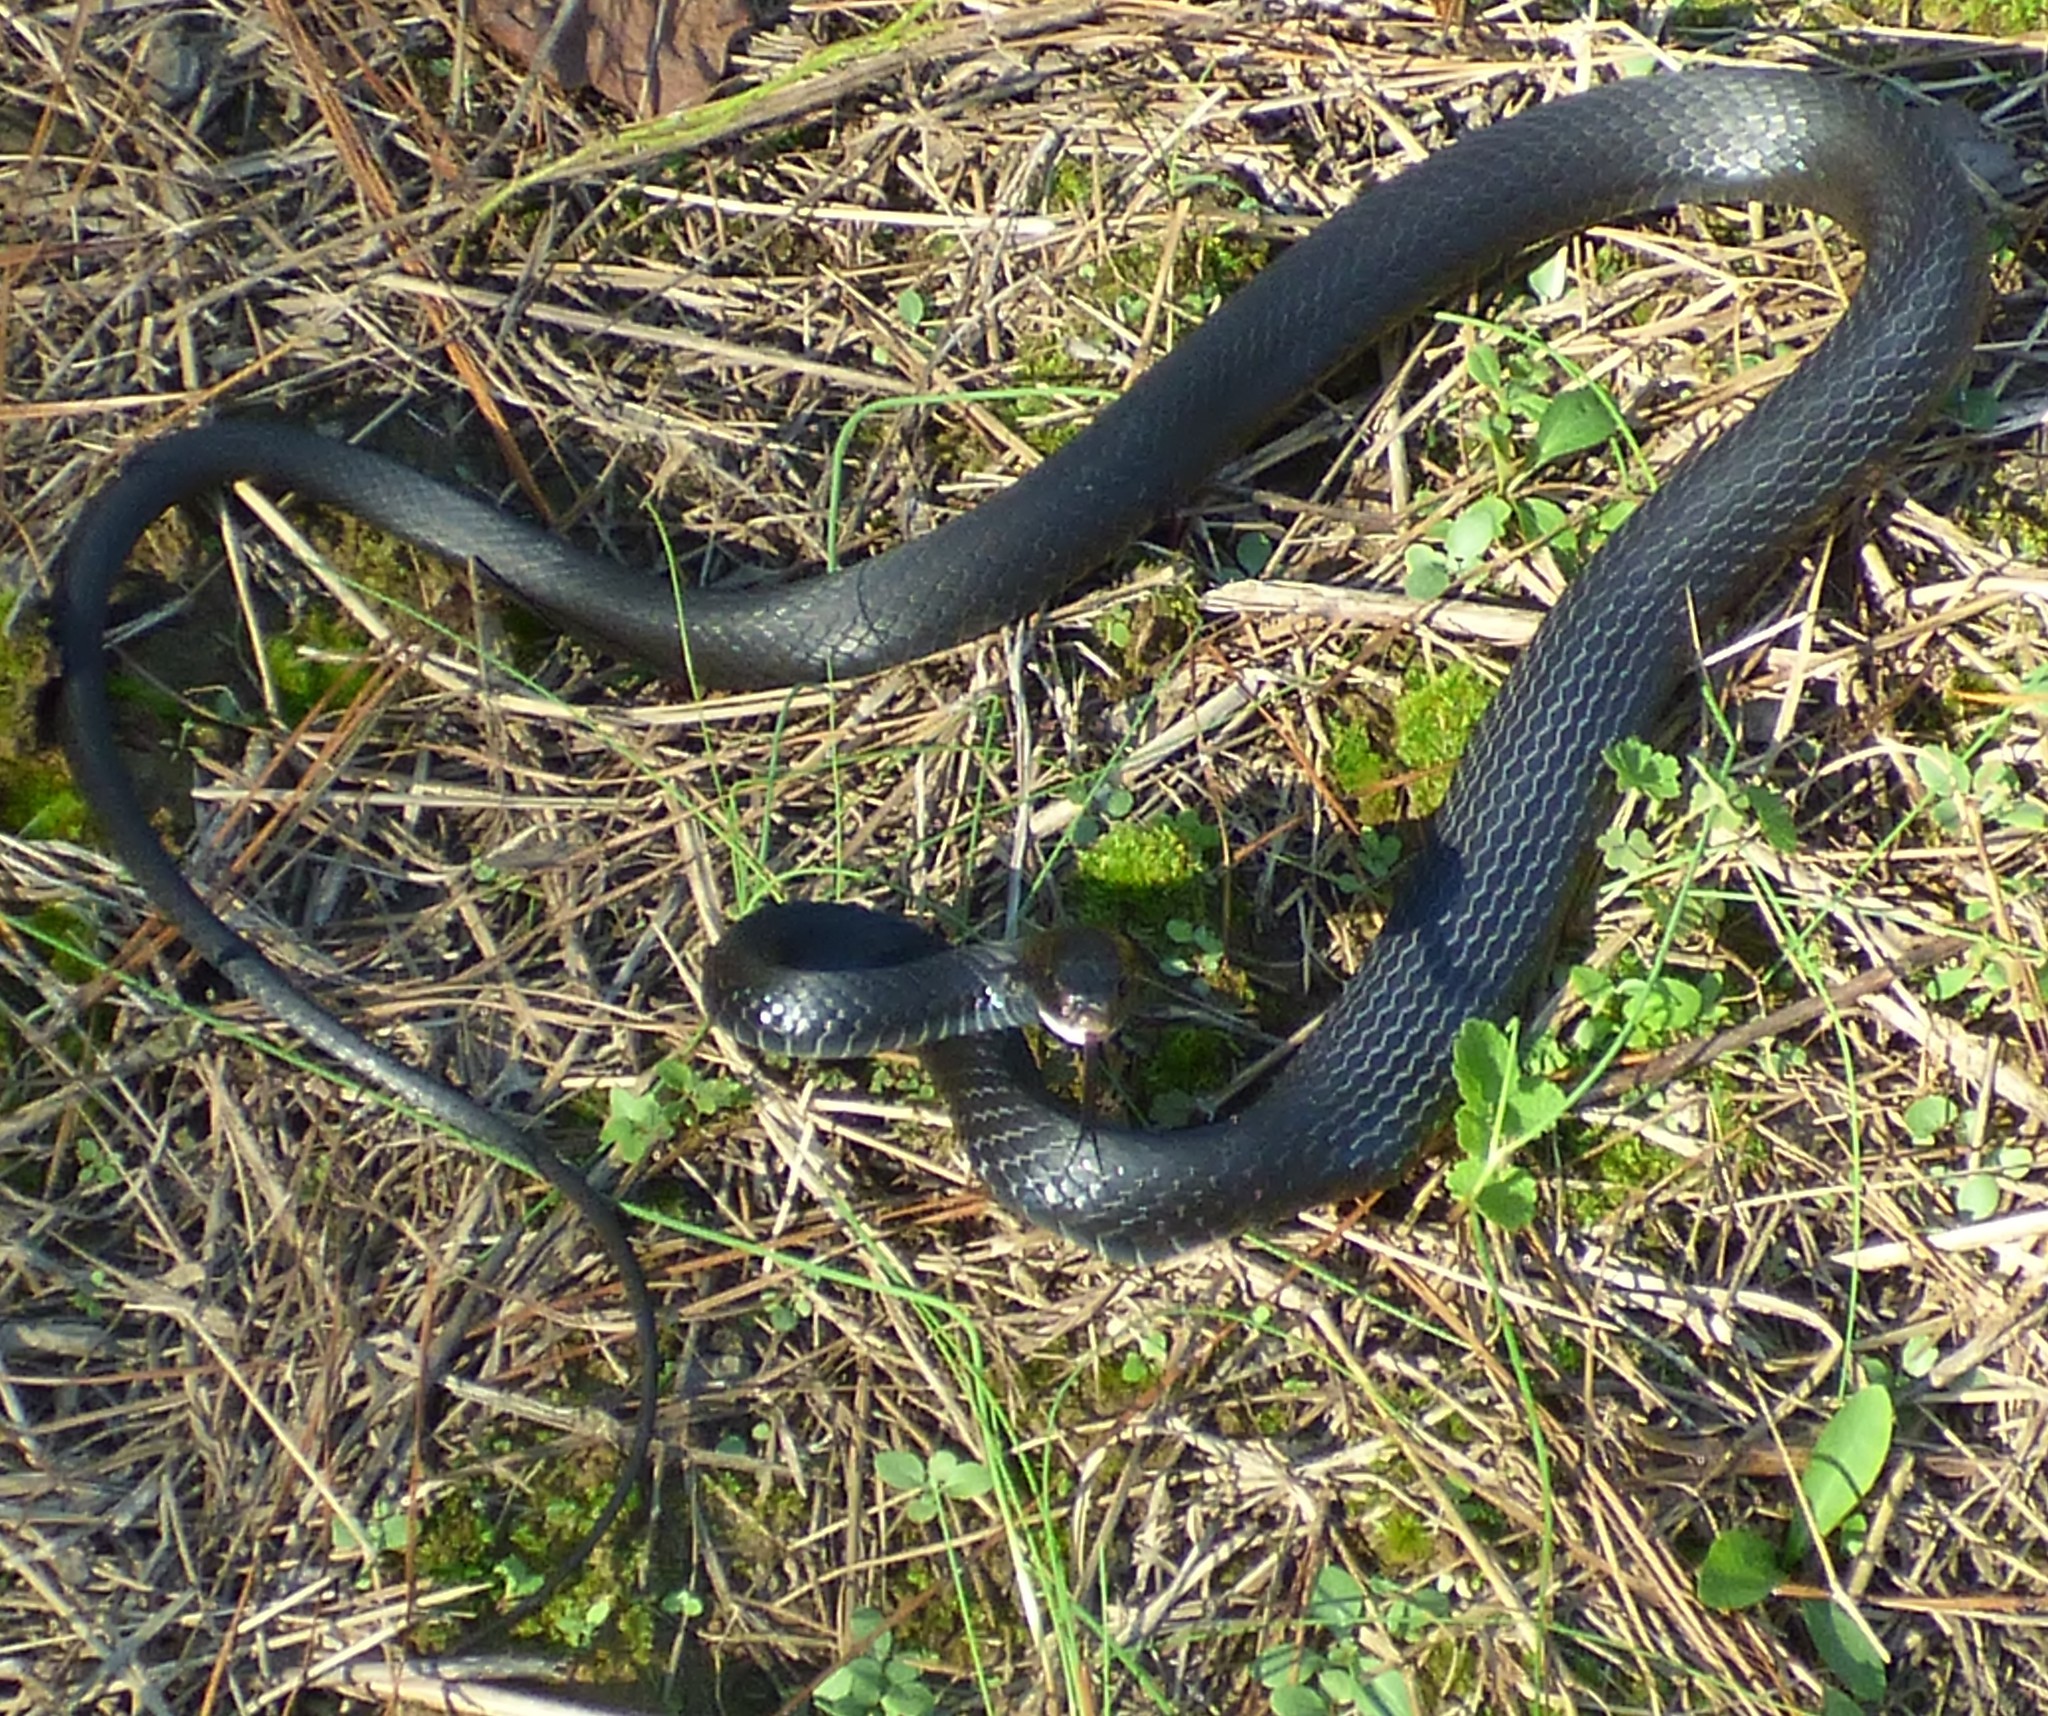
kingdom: Animalia
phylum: Chordata
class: Squamata
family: Colubridae
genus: Coluber
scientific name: Coluber constrictor
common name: Eastern racer
